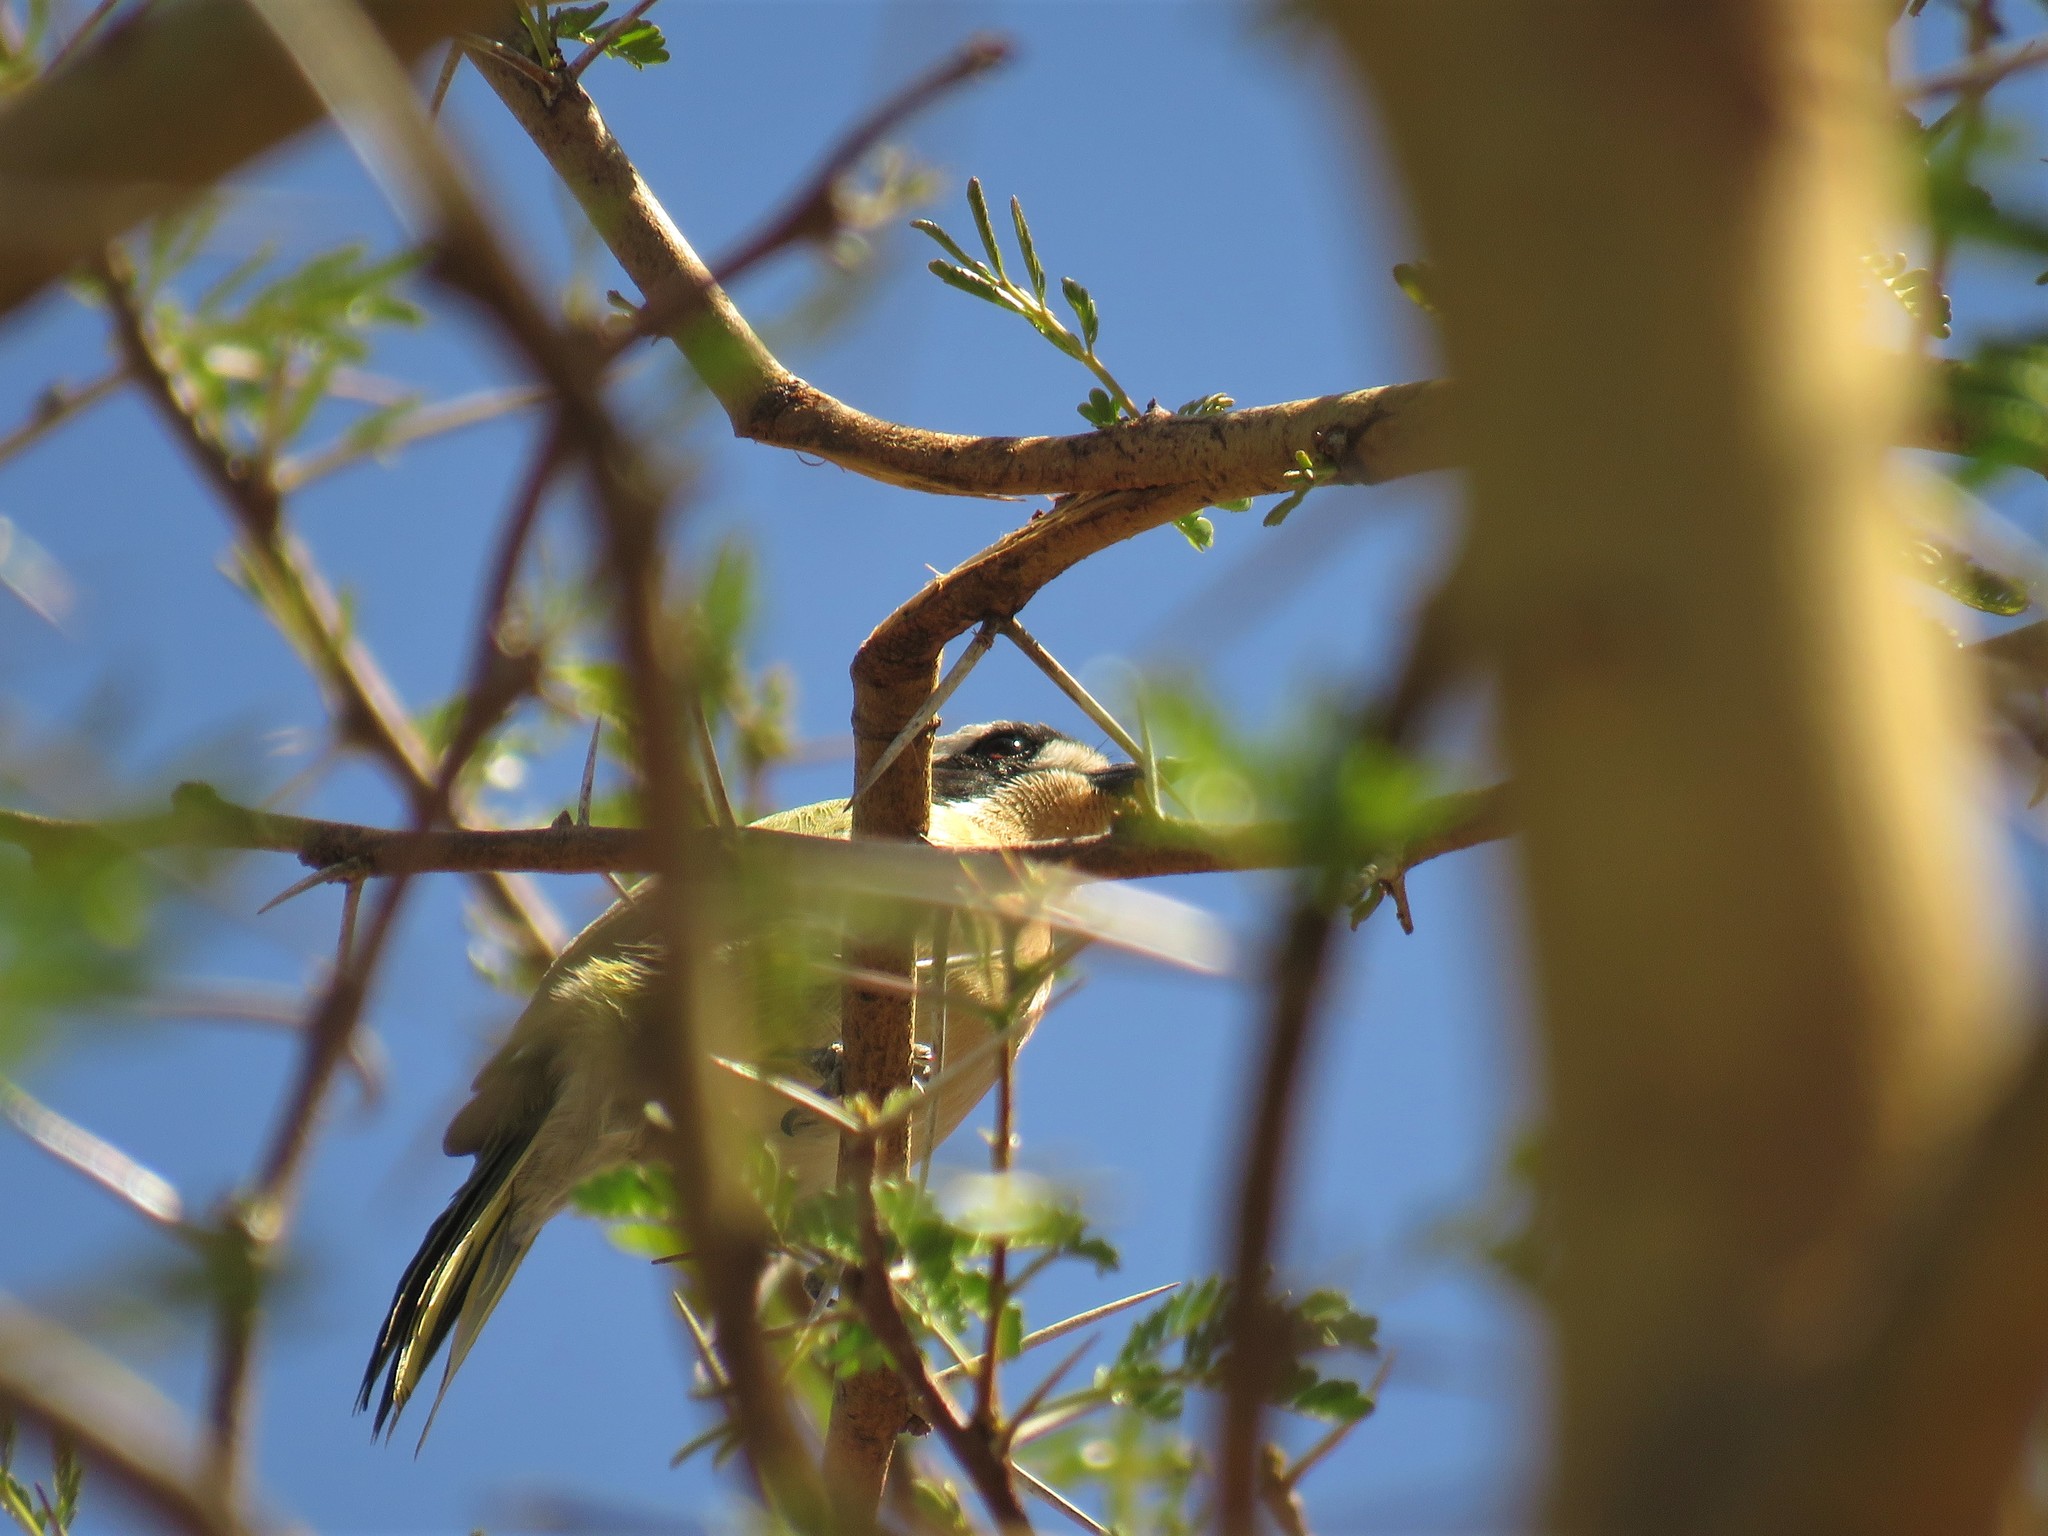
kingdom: Animalia
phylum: Chordata
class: Aves
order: Passeriformes
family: Malaconotidae
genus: Chlorophoneus
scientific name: Chlorophoneus olivaceus
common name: Olive bushshrike
